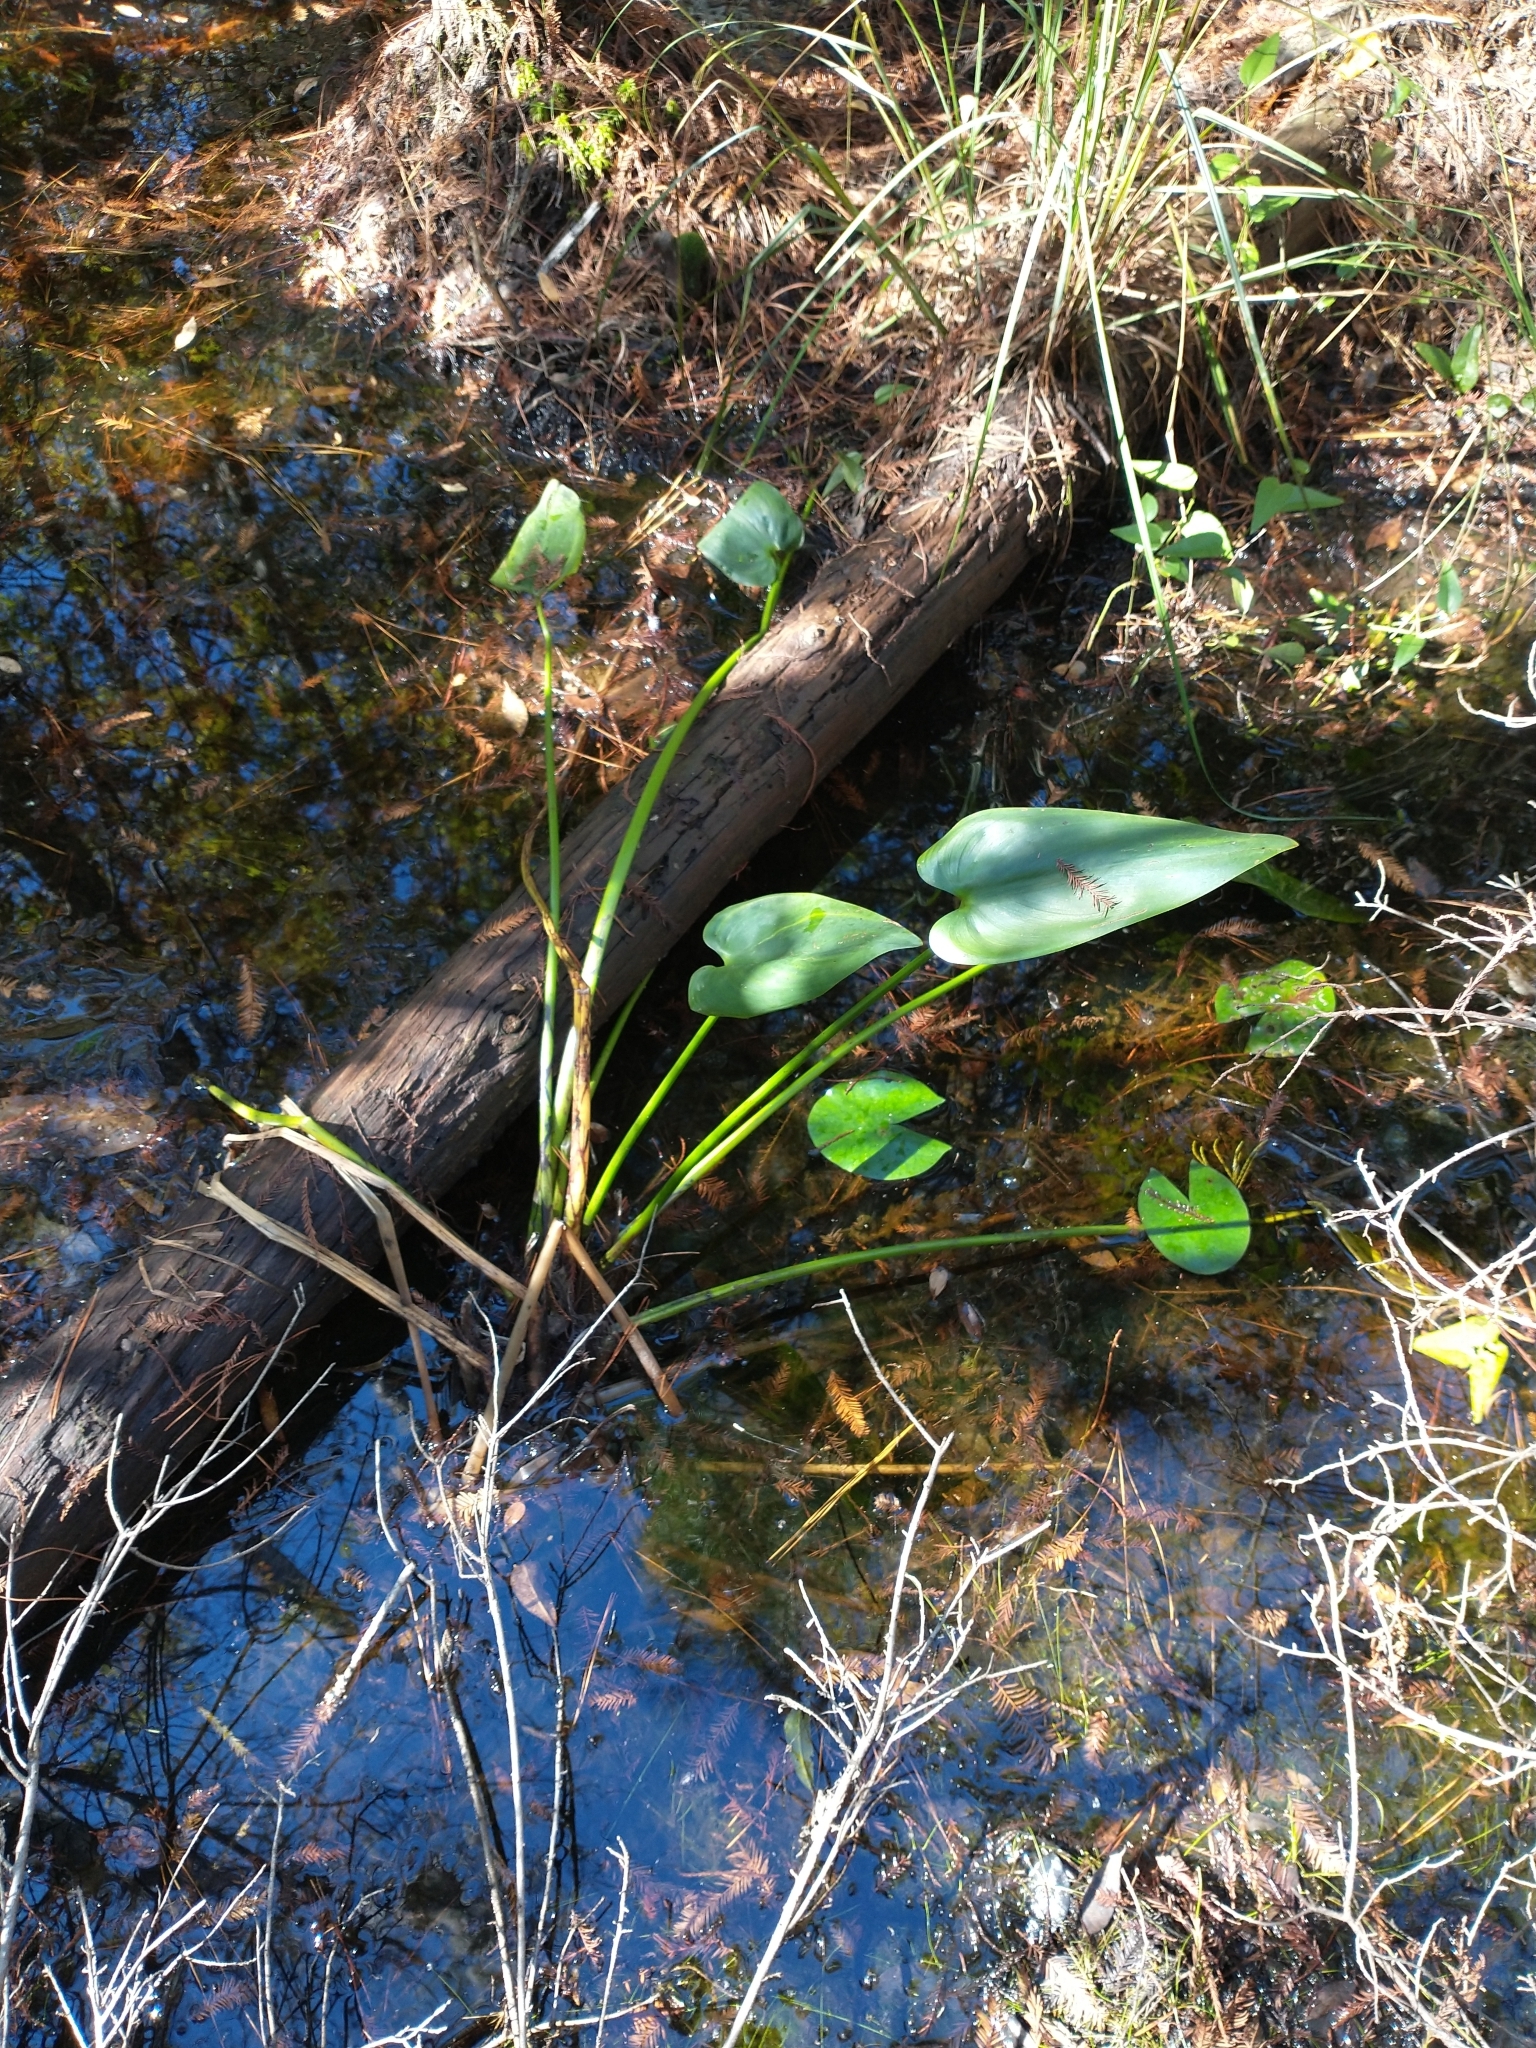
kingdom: Plantae
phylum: Tracheophyta
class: Liliopsida
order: Commelinales
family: Pontederiaceae
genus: Pontederia
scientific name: Pontederia cordata
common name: Pickerelweed
